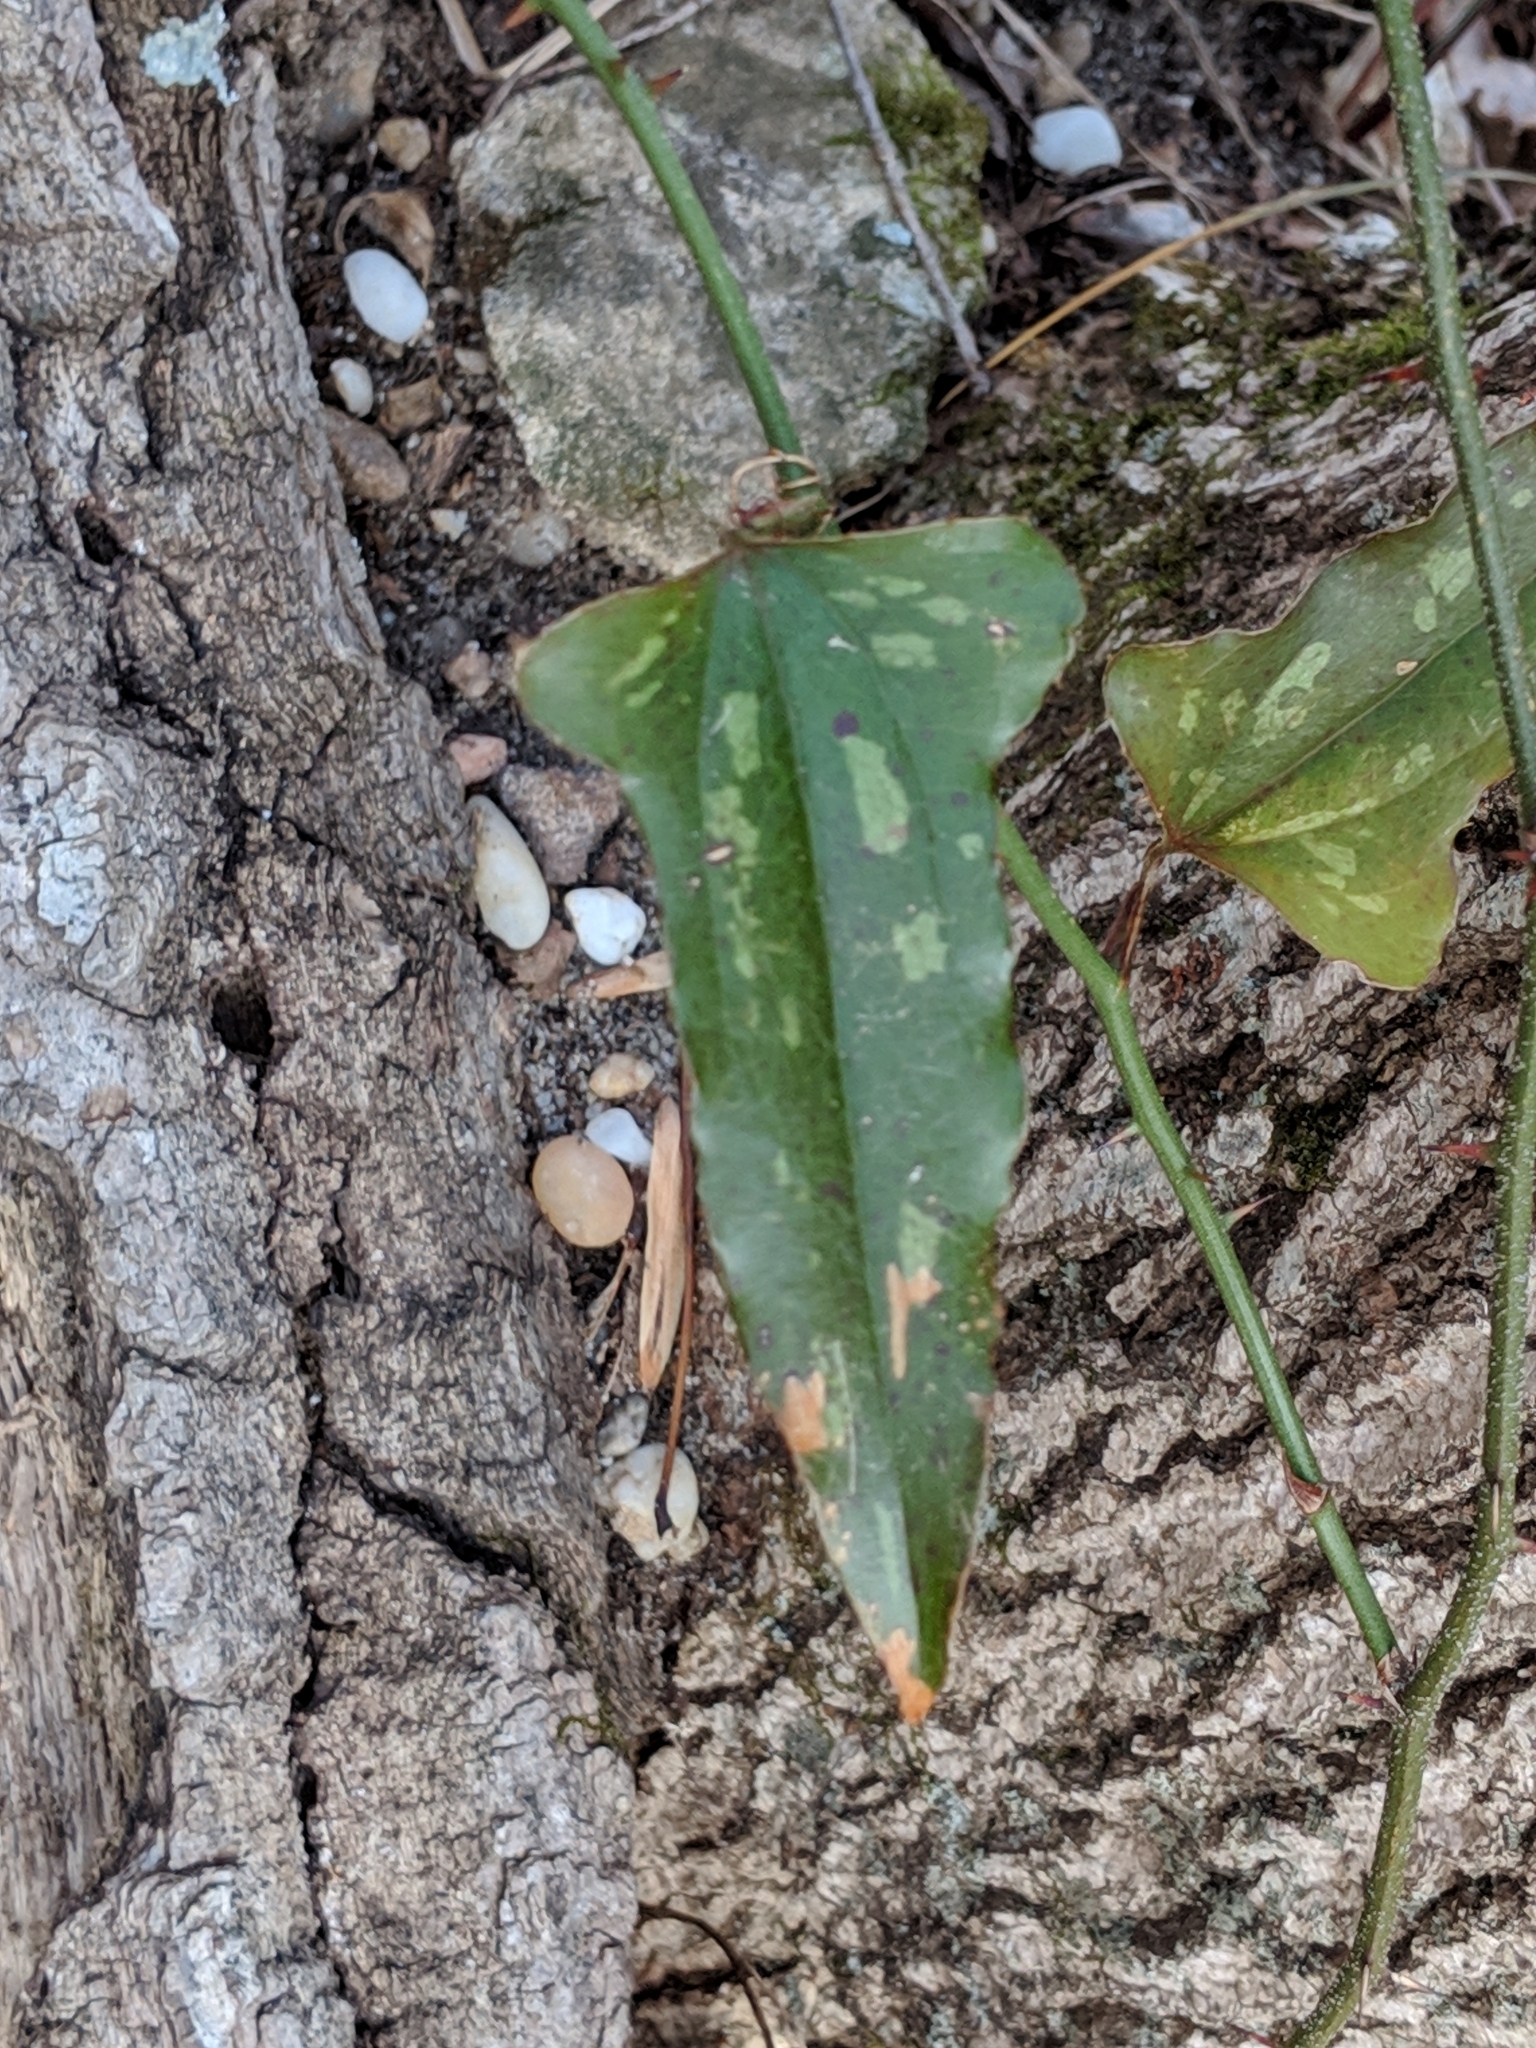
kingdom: Plantae
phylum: Tracheophyta
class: Liliopsida
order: Liliales
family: Smilacaceae
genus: Smilax
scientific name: Smilax bona-nox
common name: Catbrier
